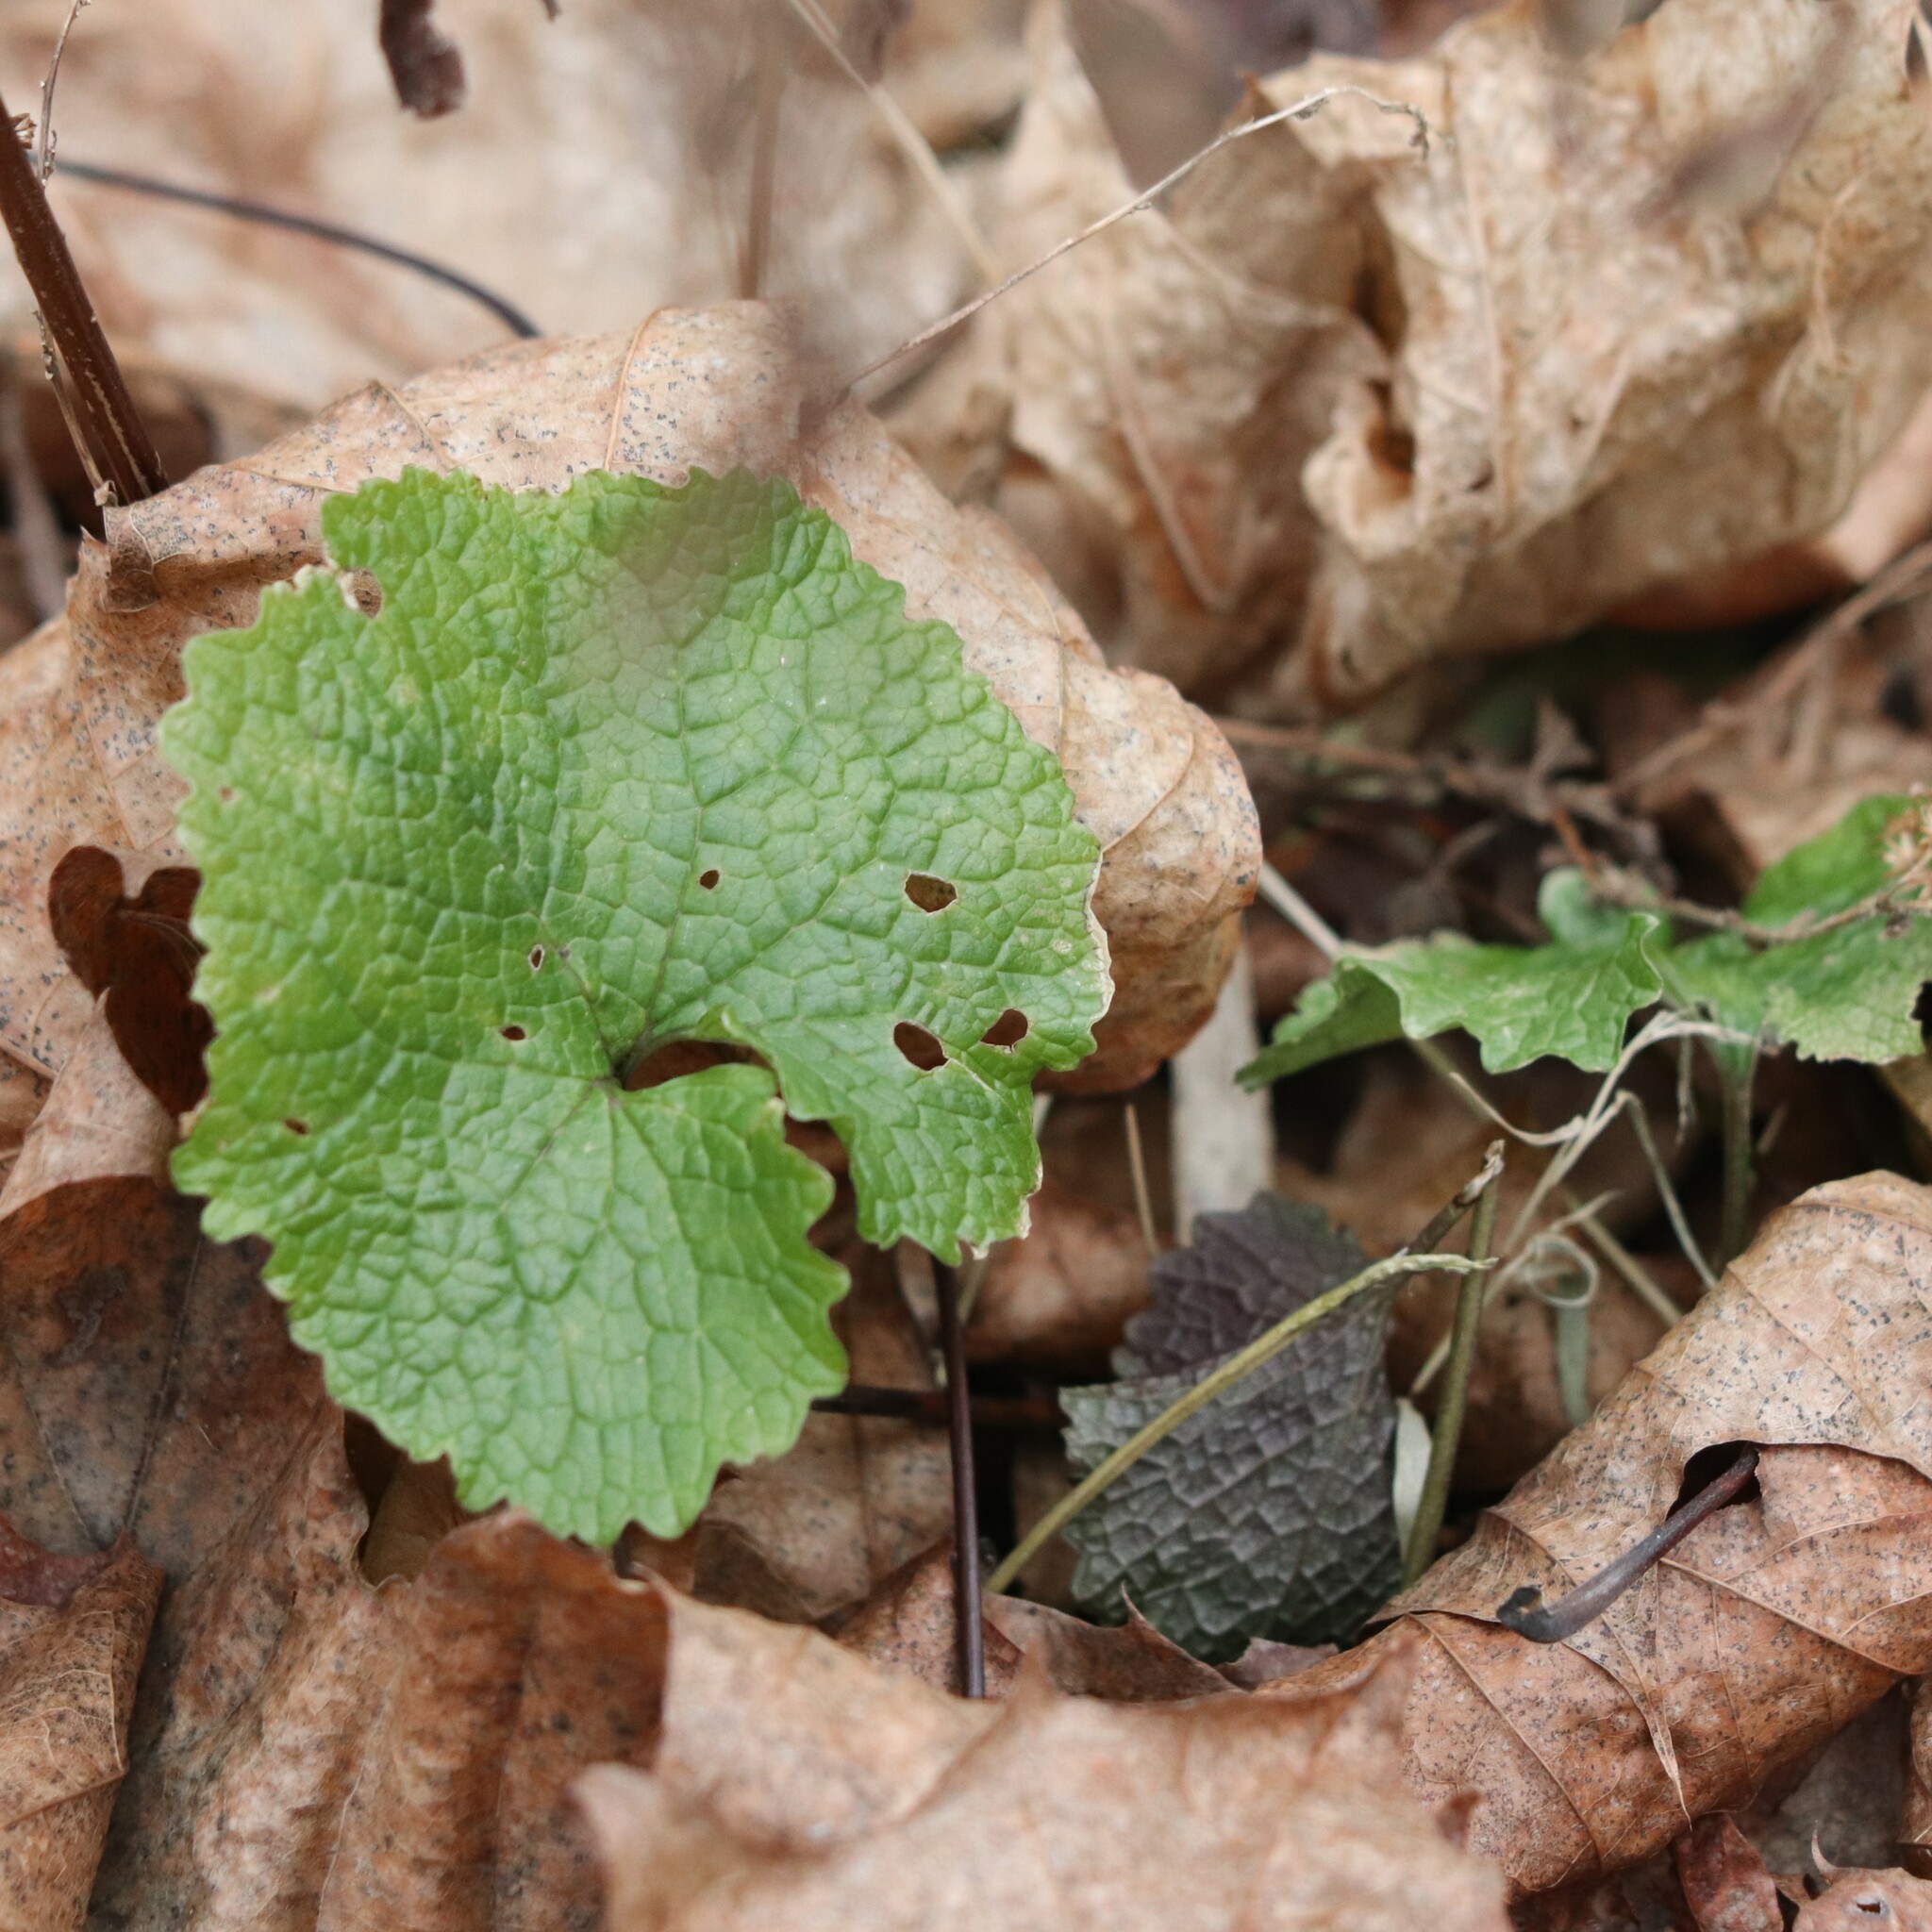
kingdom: Plantae
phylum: Tracheophyta
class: Magnoliopsida
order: Brassicales
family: Brassicaceae
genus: Alliaria
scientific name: Alliaria petiolata
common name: Garlic mustard
